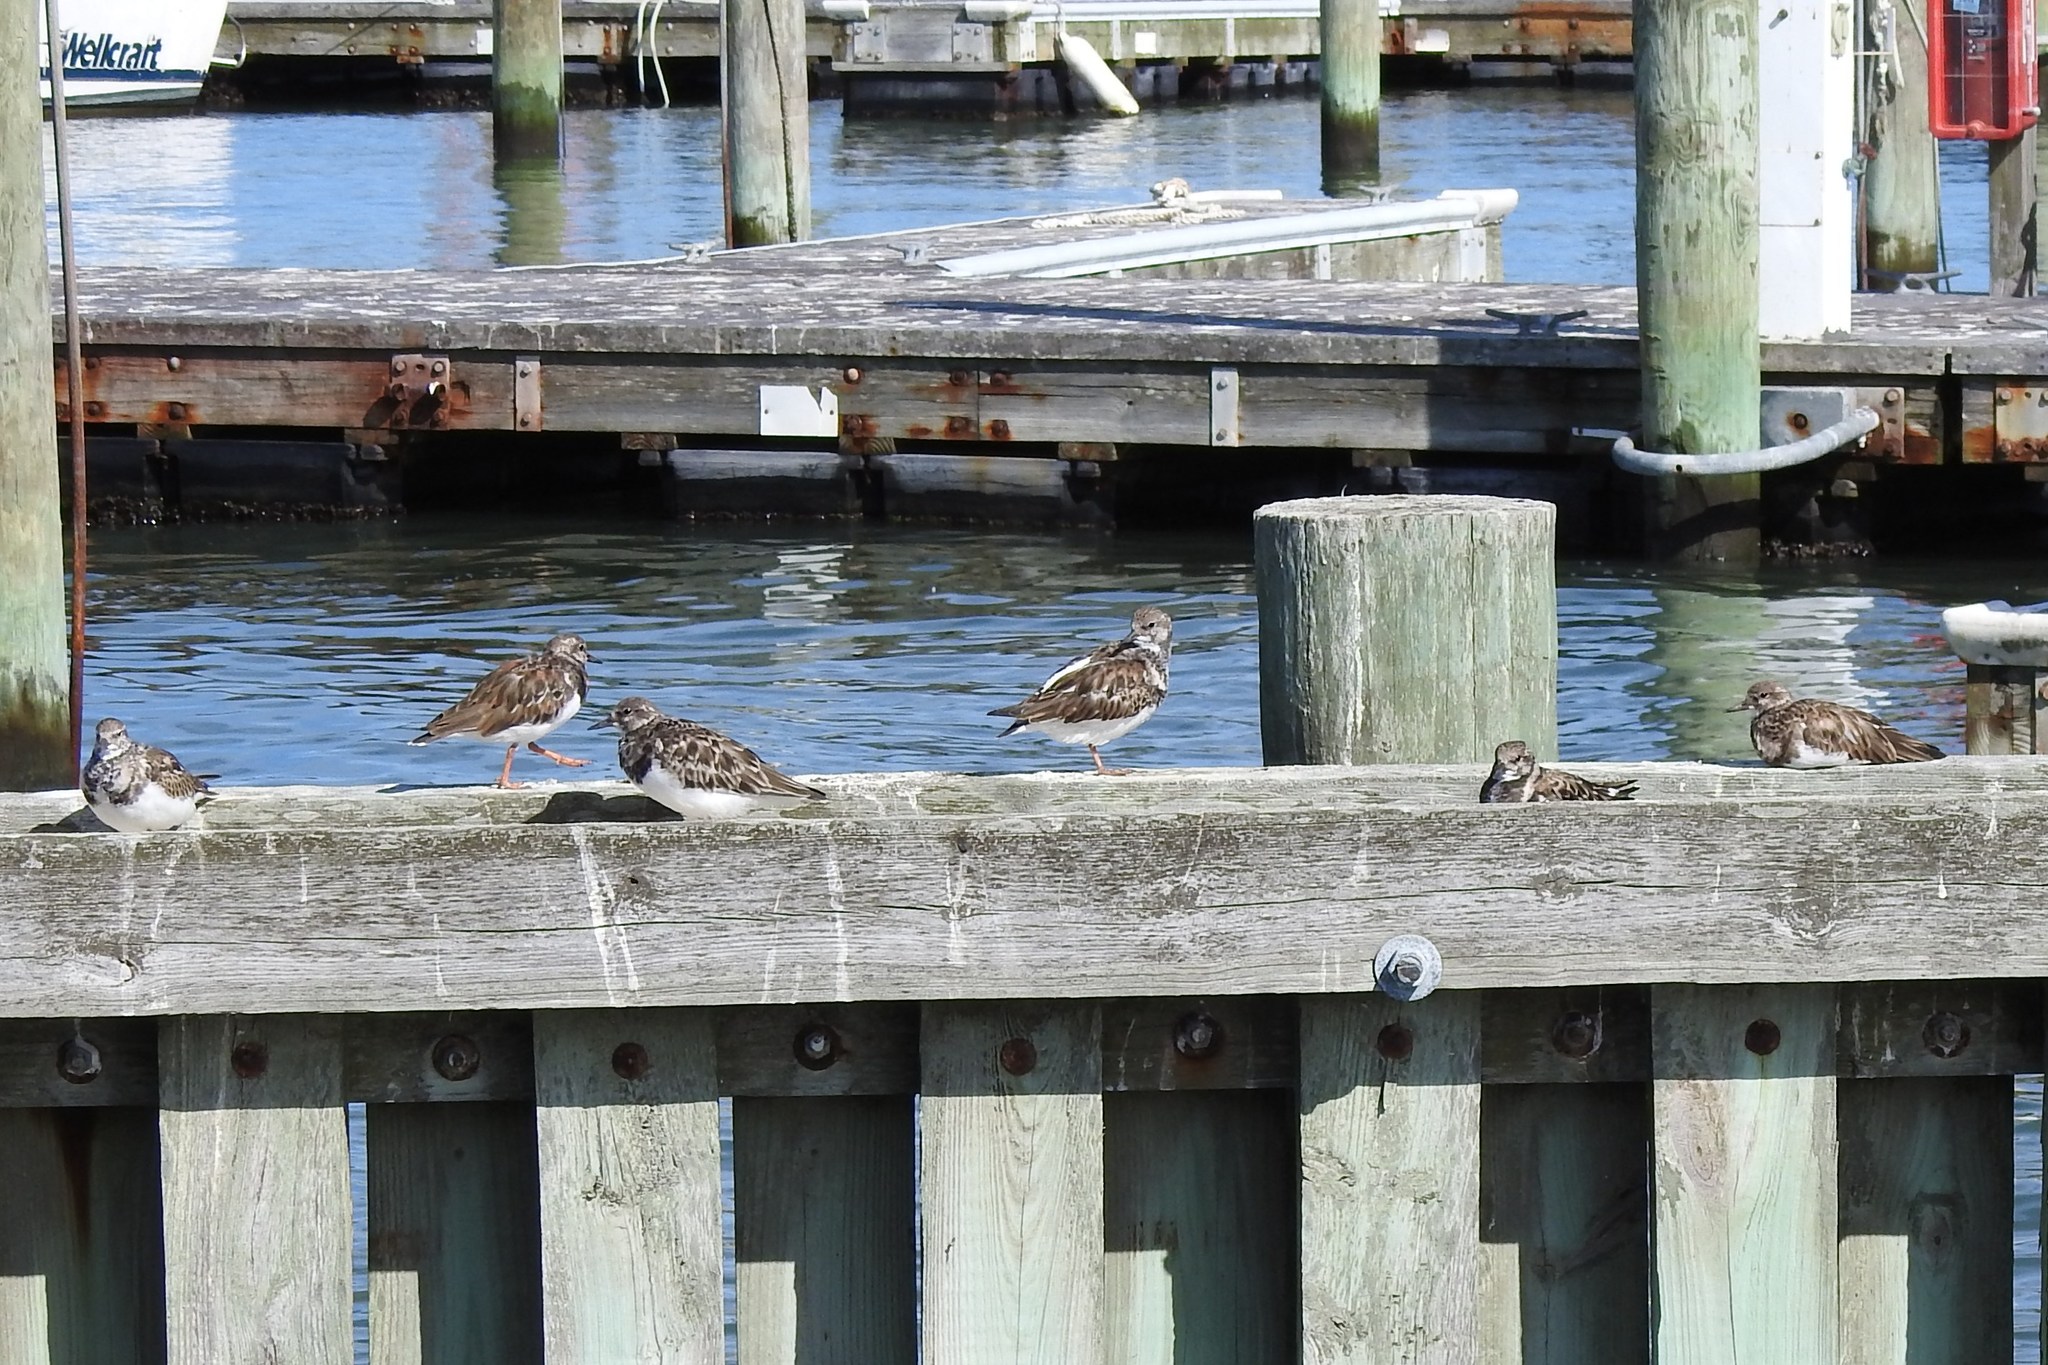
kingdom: Animalia
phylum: Chordata
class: Aves
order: Charadriiformes
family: Scolopacidae
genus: Arenaria
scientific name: Arenaria interpres
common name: Ruddy turnstone
